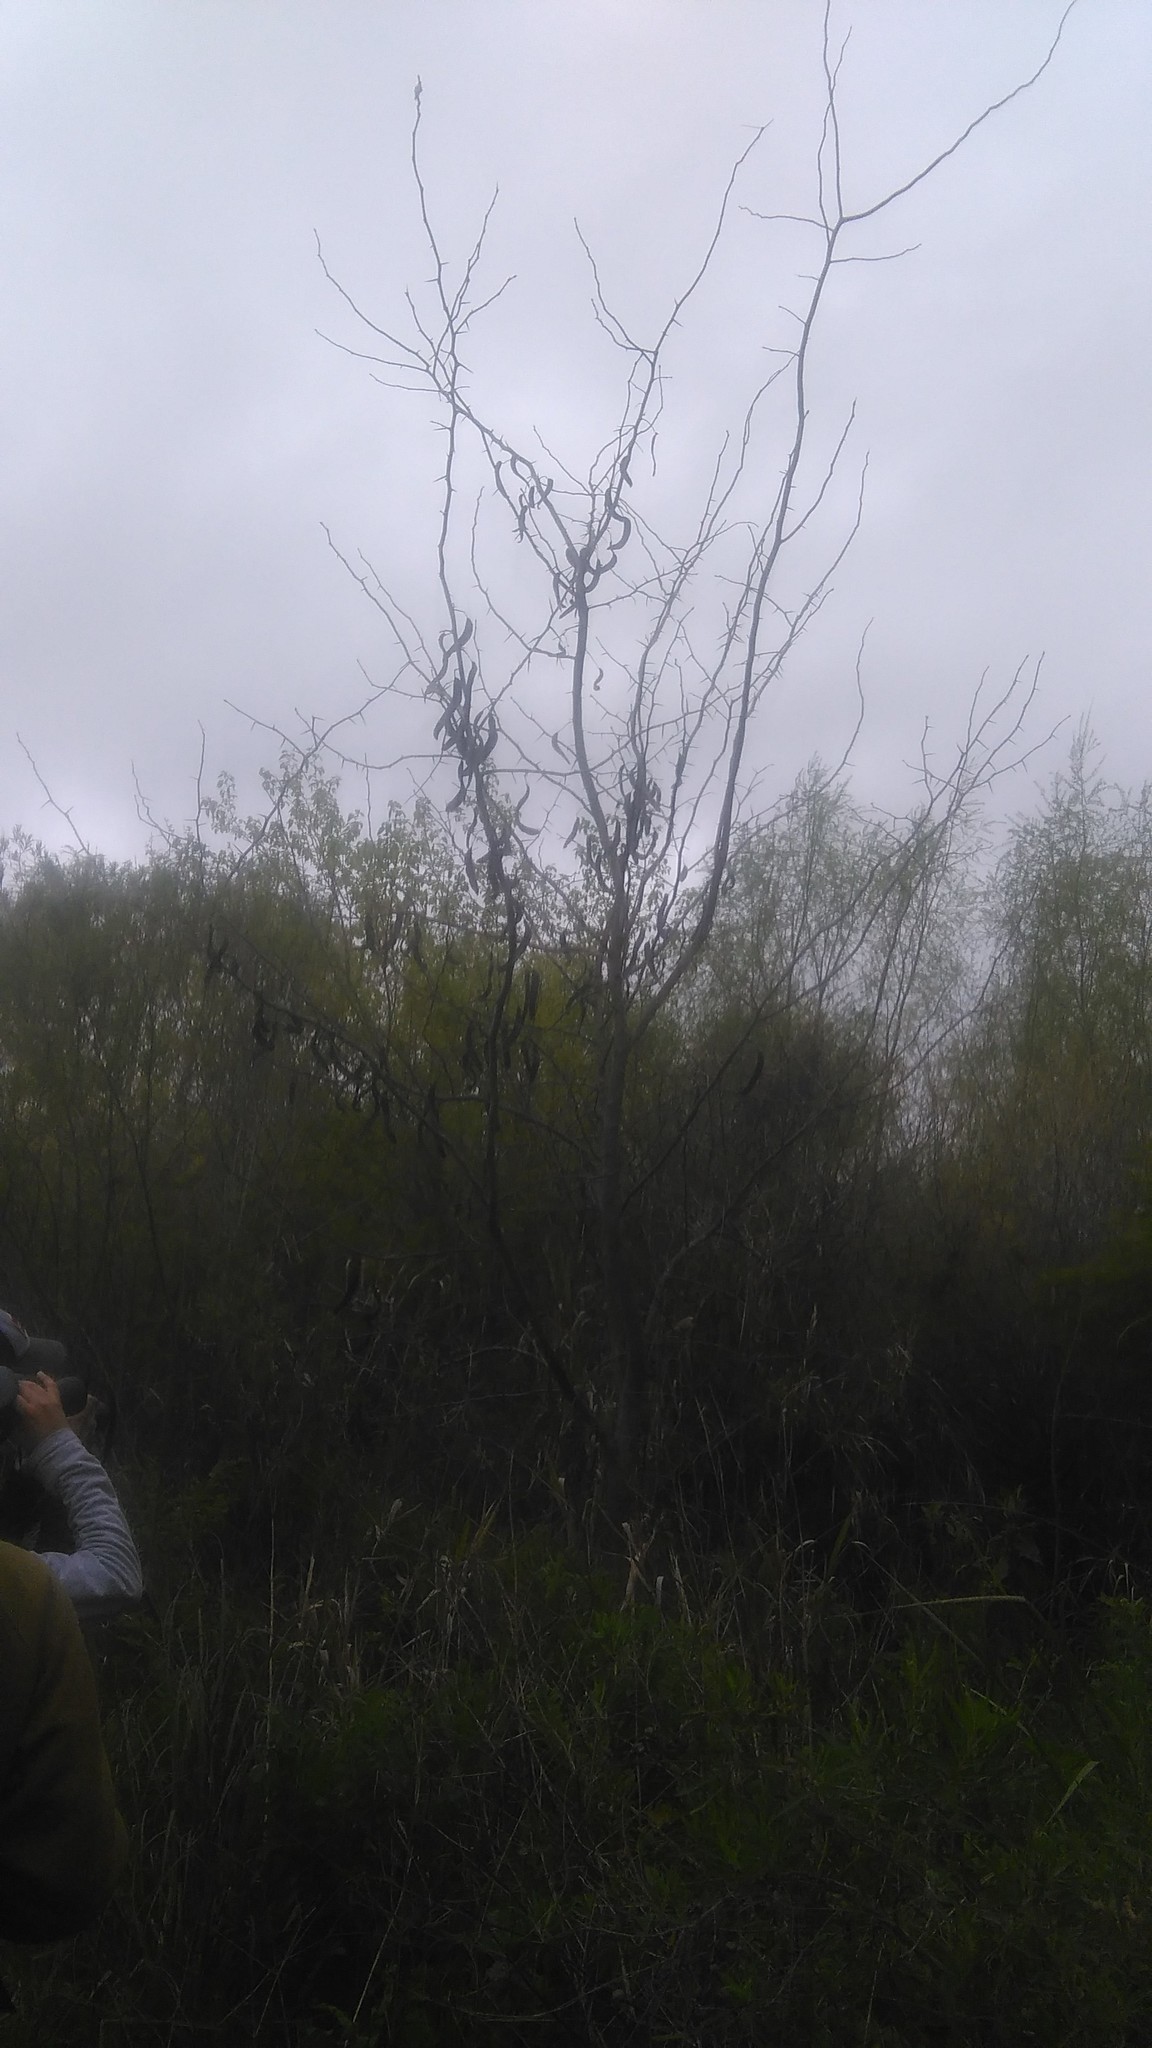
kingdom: Plantae
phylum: Tracheophyta
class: Magnoliopsida
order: Fabales
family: Fabaceae
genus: Gleditsia
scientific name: Gleditsia triacanthos
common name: Common honeylocust
